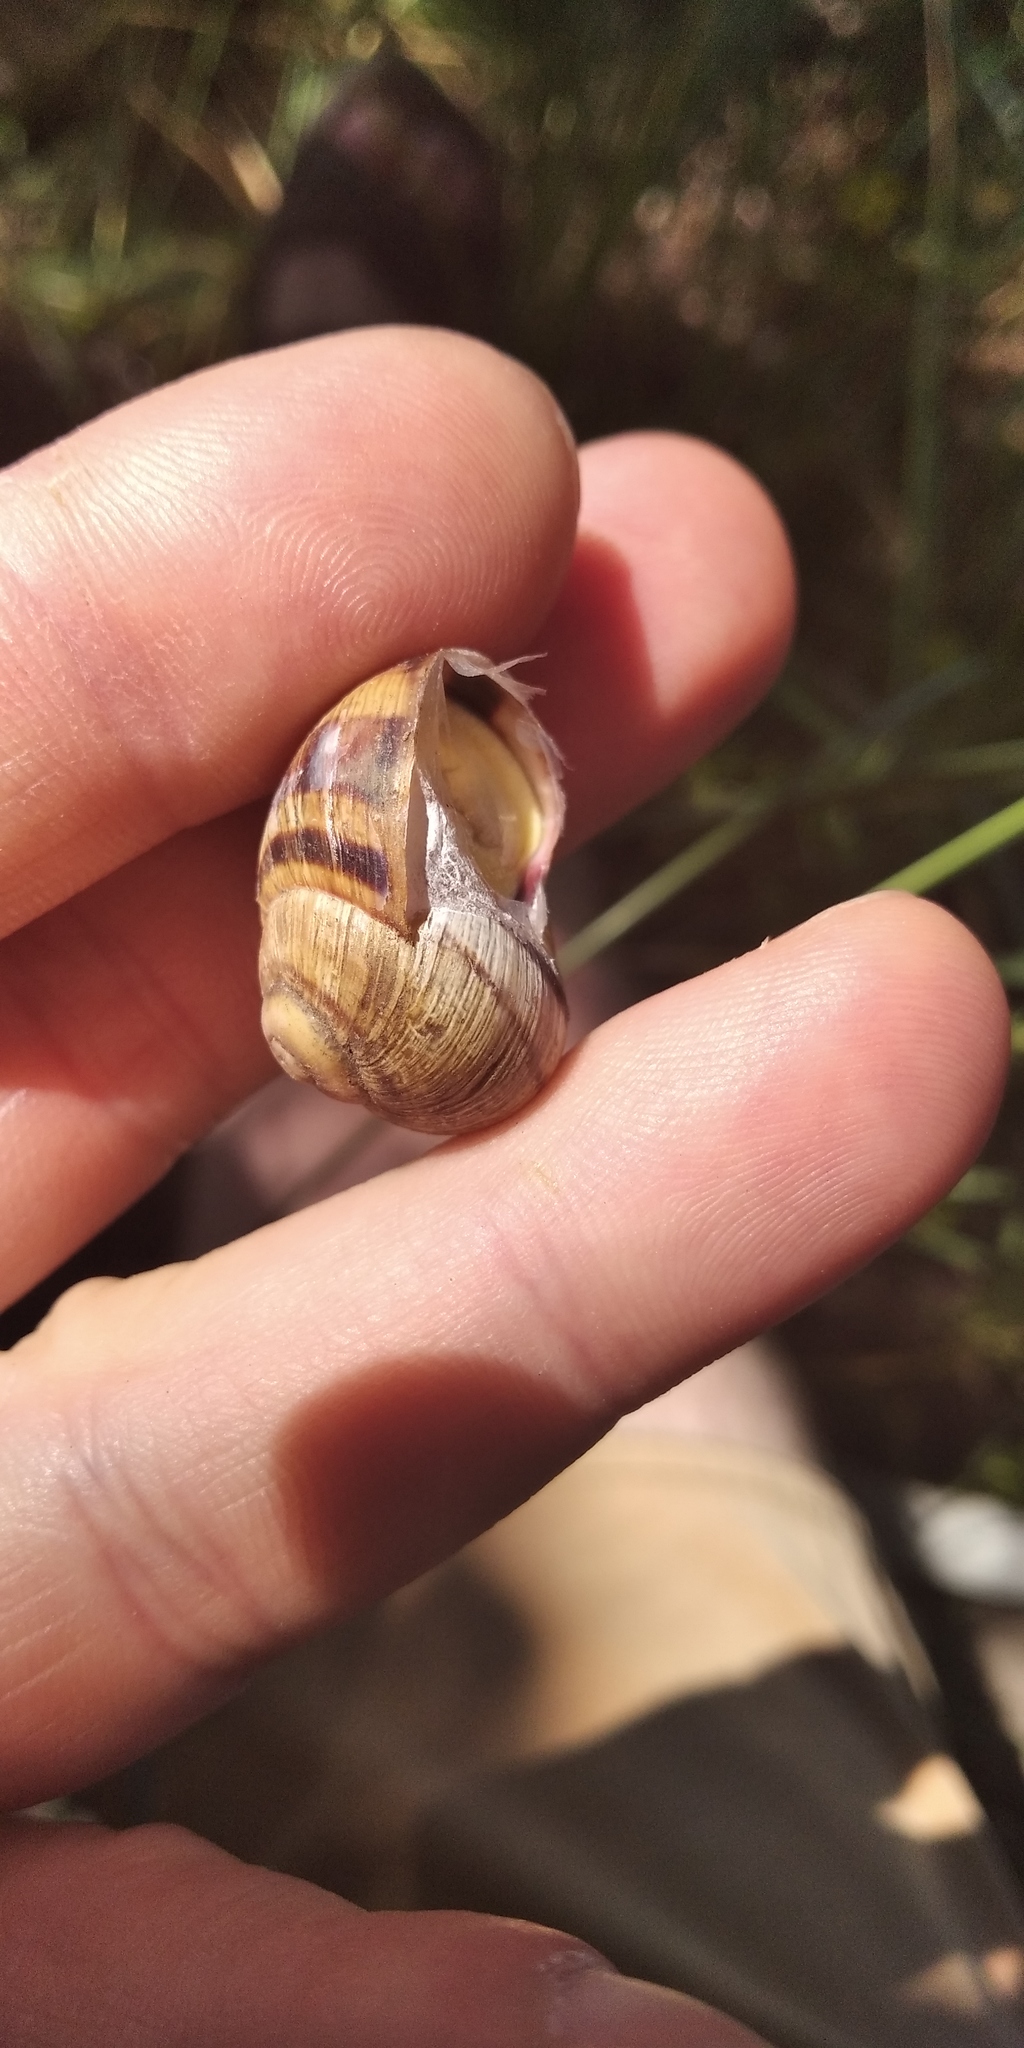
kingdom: Animalia
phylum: Mollusca
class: Gastropoda
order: Stylommatophora
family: Helicidae
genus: Helix
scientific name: Helix albescens
